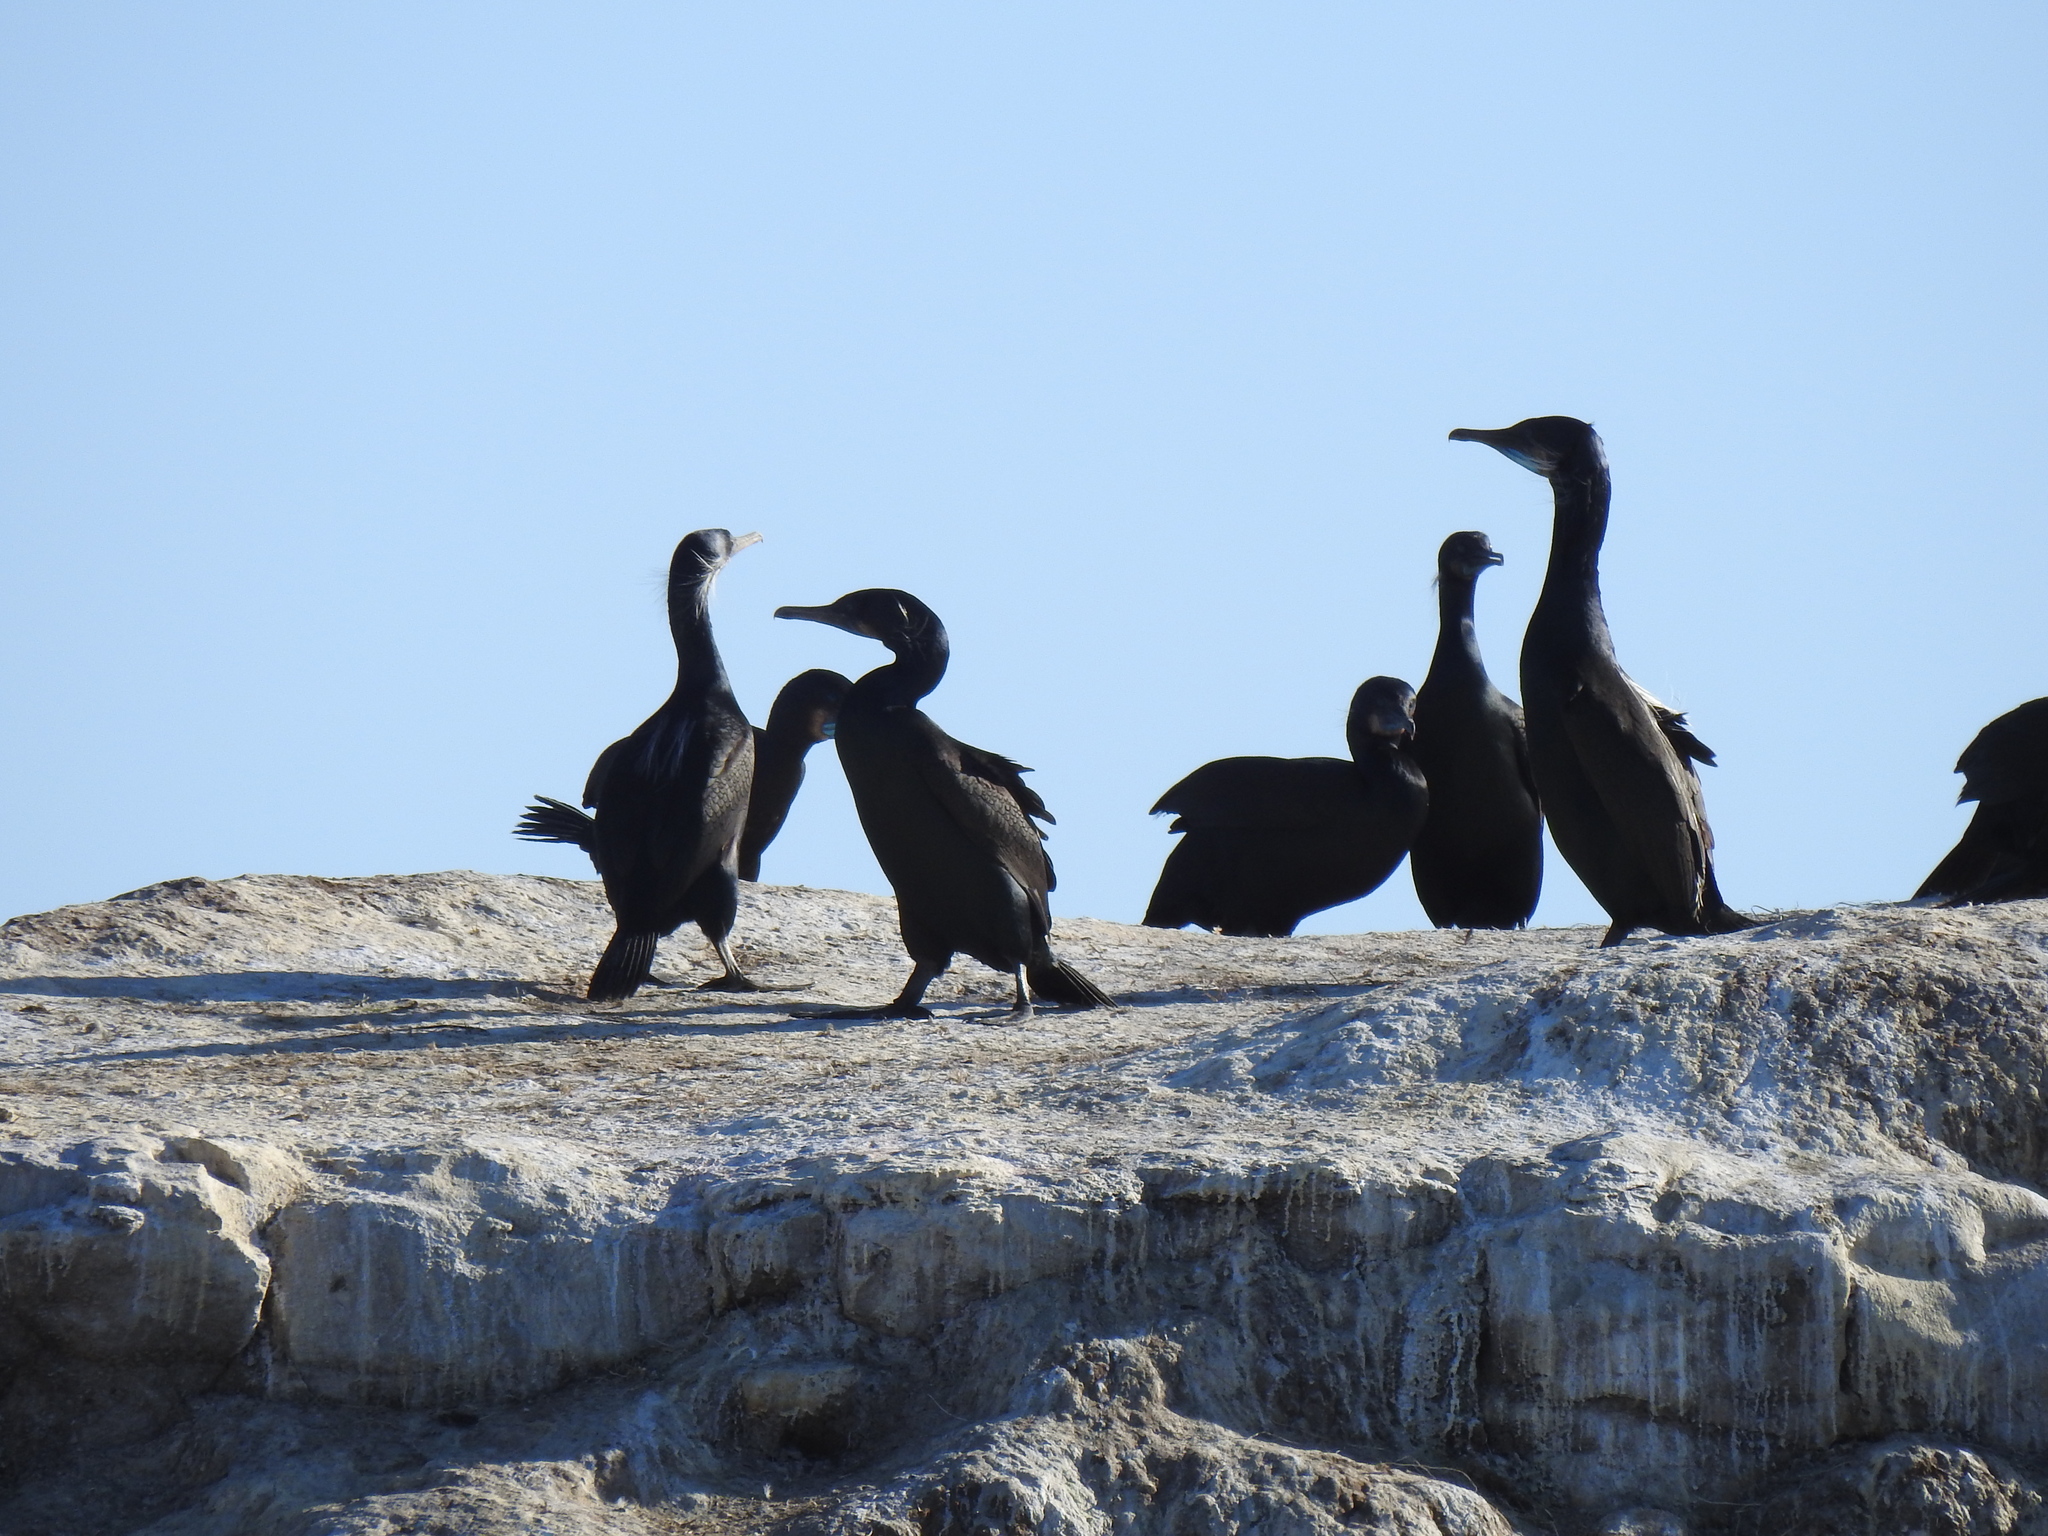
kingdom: Animalia
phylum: Chordata
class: Aves
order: Suliformes
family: Phalacrocoracidae
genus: Urile
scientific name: Urile penicillatus
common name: Brandt's cormorant
